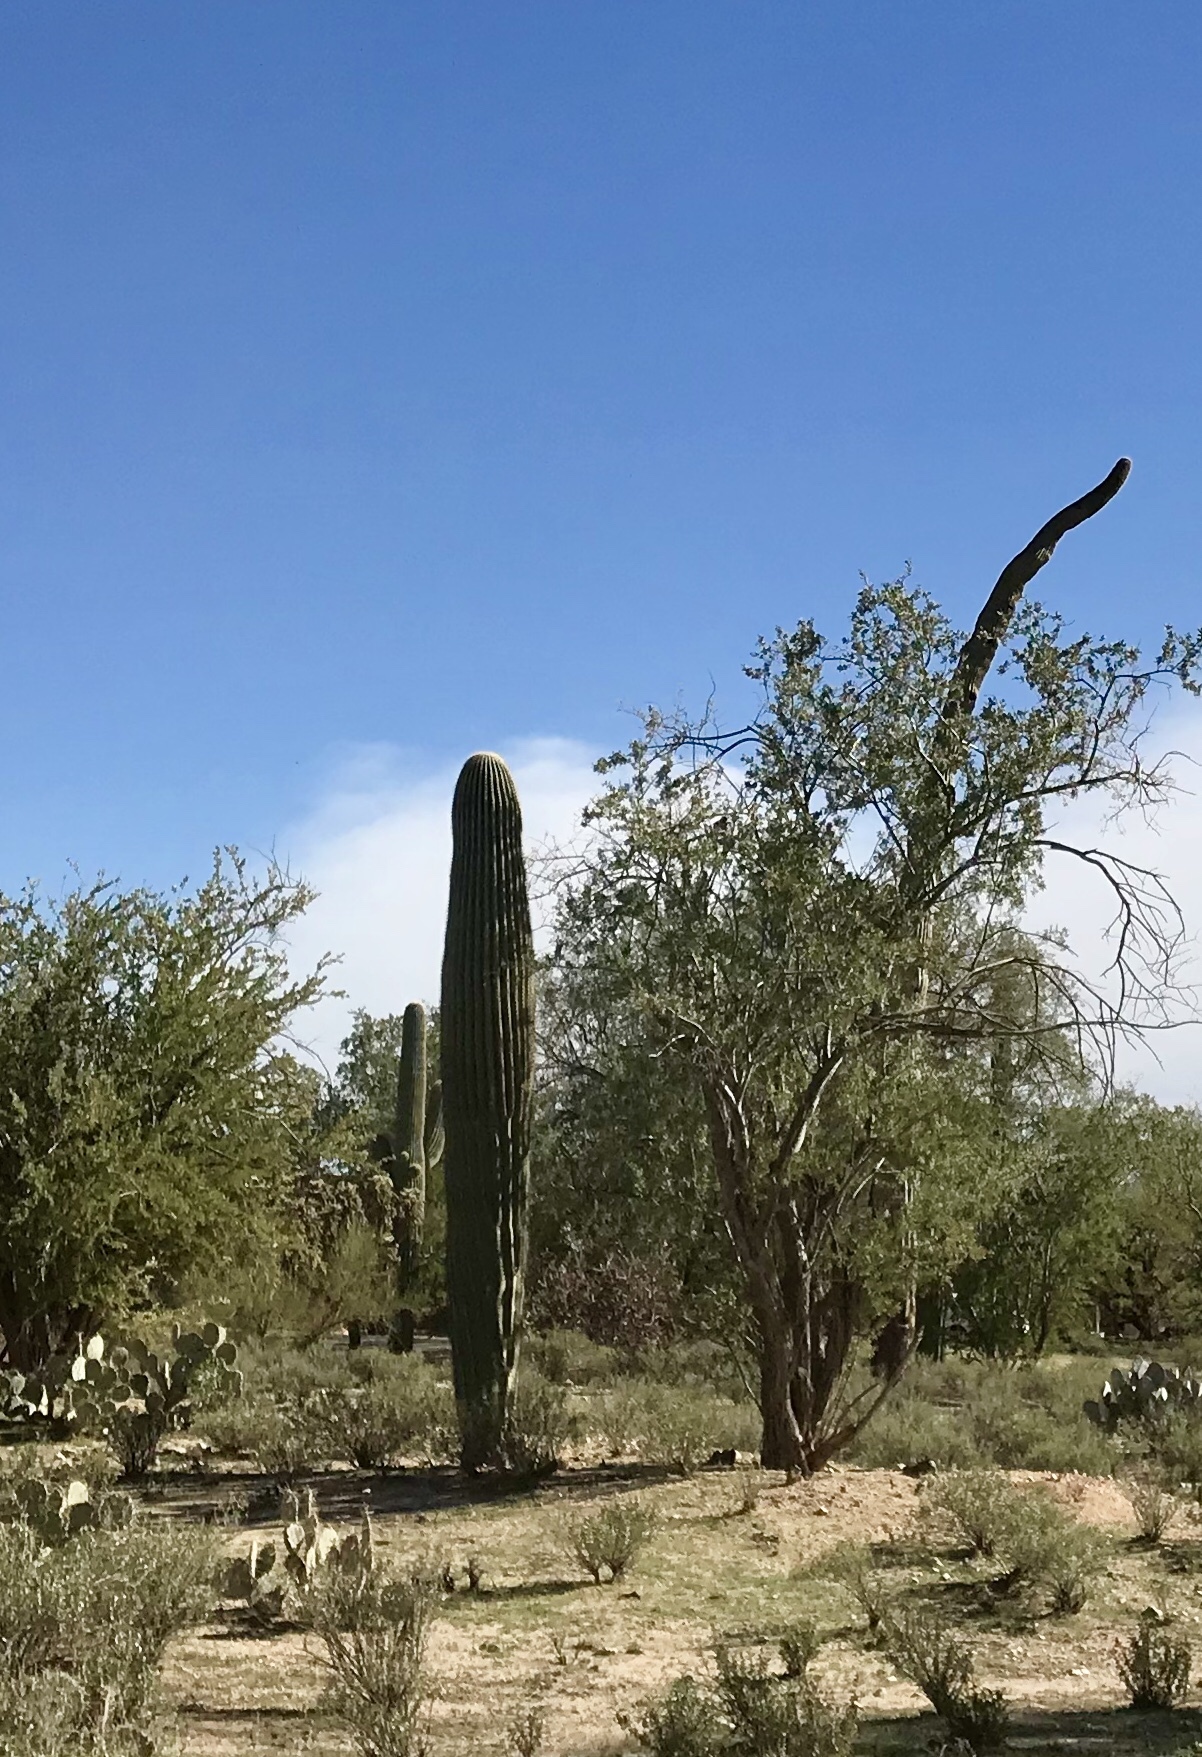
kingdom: Plantae
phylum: Tracheophyta
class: Magnoliopsida
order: Caryophyllales
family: Cactaceae
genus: Carnegiea
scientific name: Carnegiea gigantea
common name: Saguaro
